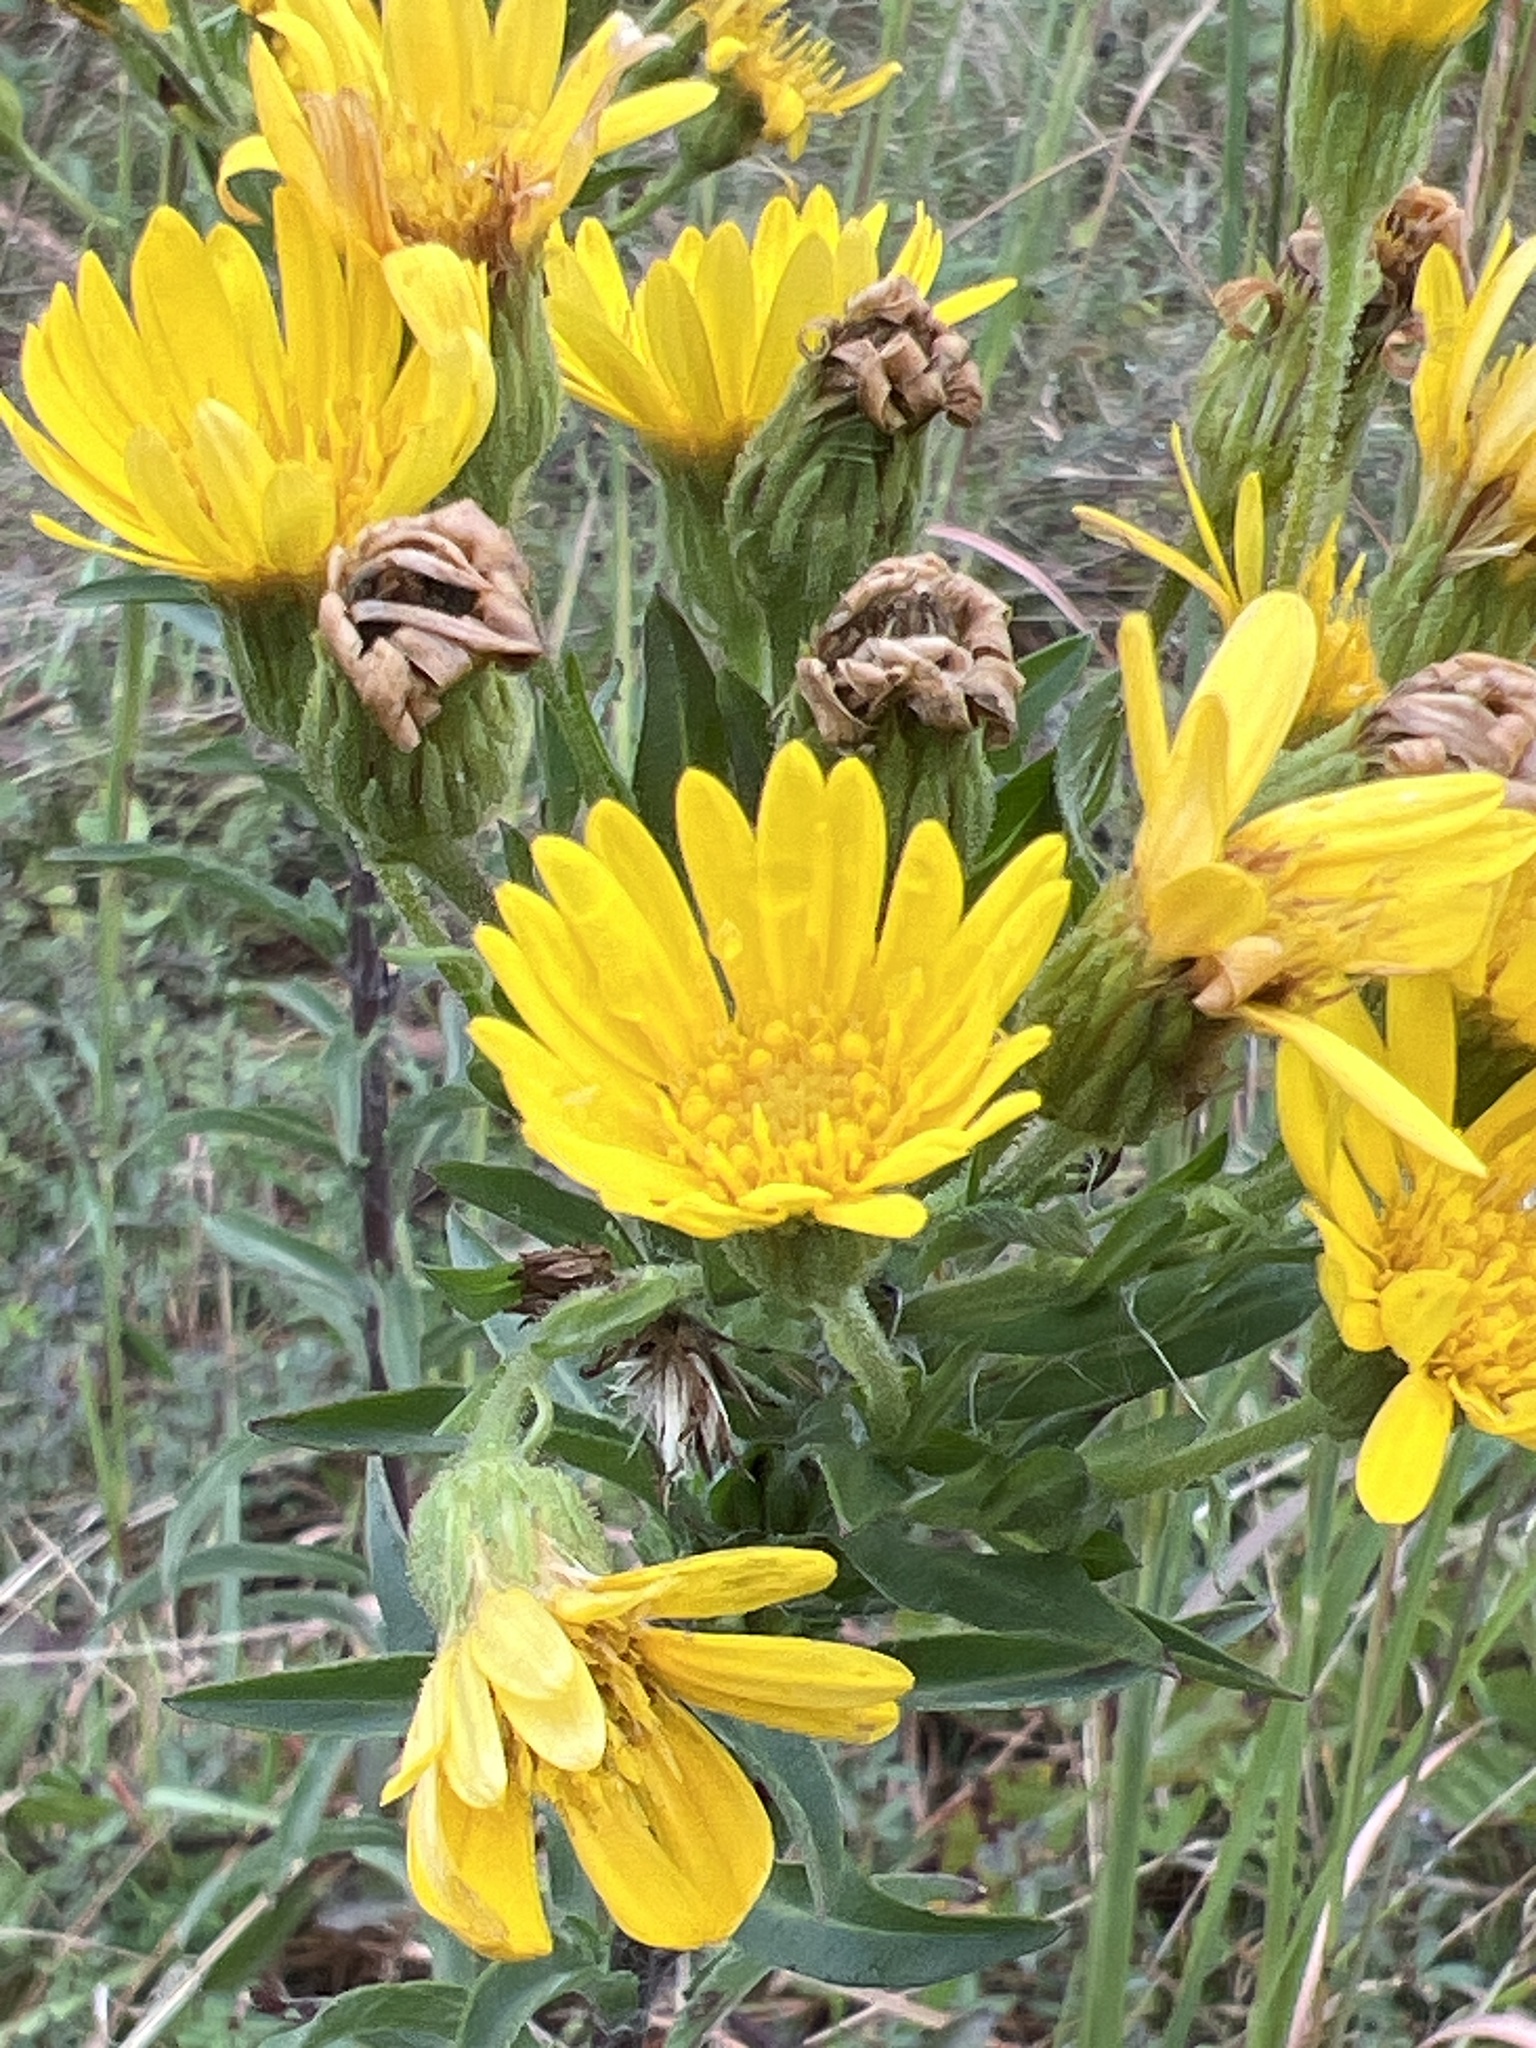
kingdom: Plantae
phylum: Tracheophyta
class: Magnoliopsida
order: Asterales
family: Asteraceae
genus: Chrysopsis
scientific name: Chrysopsis mariana
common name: Maryland golden-aster
